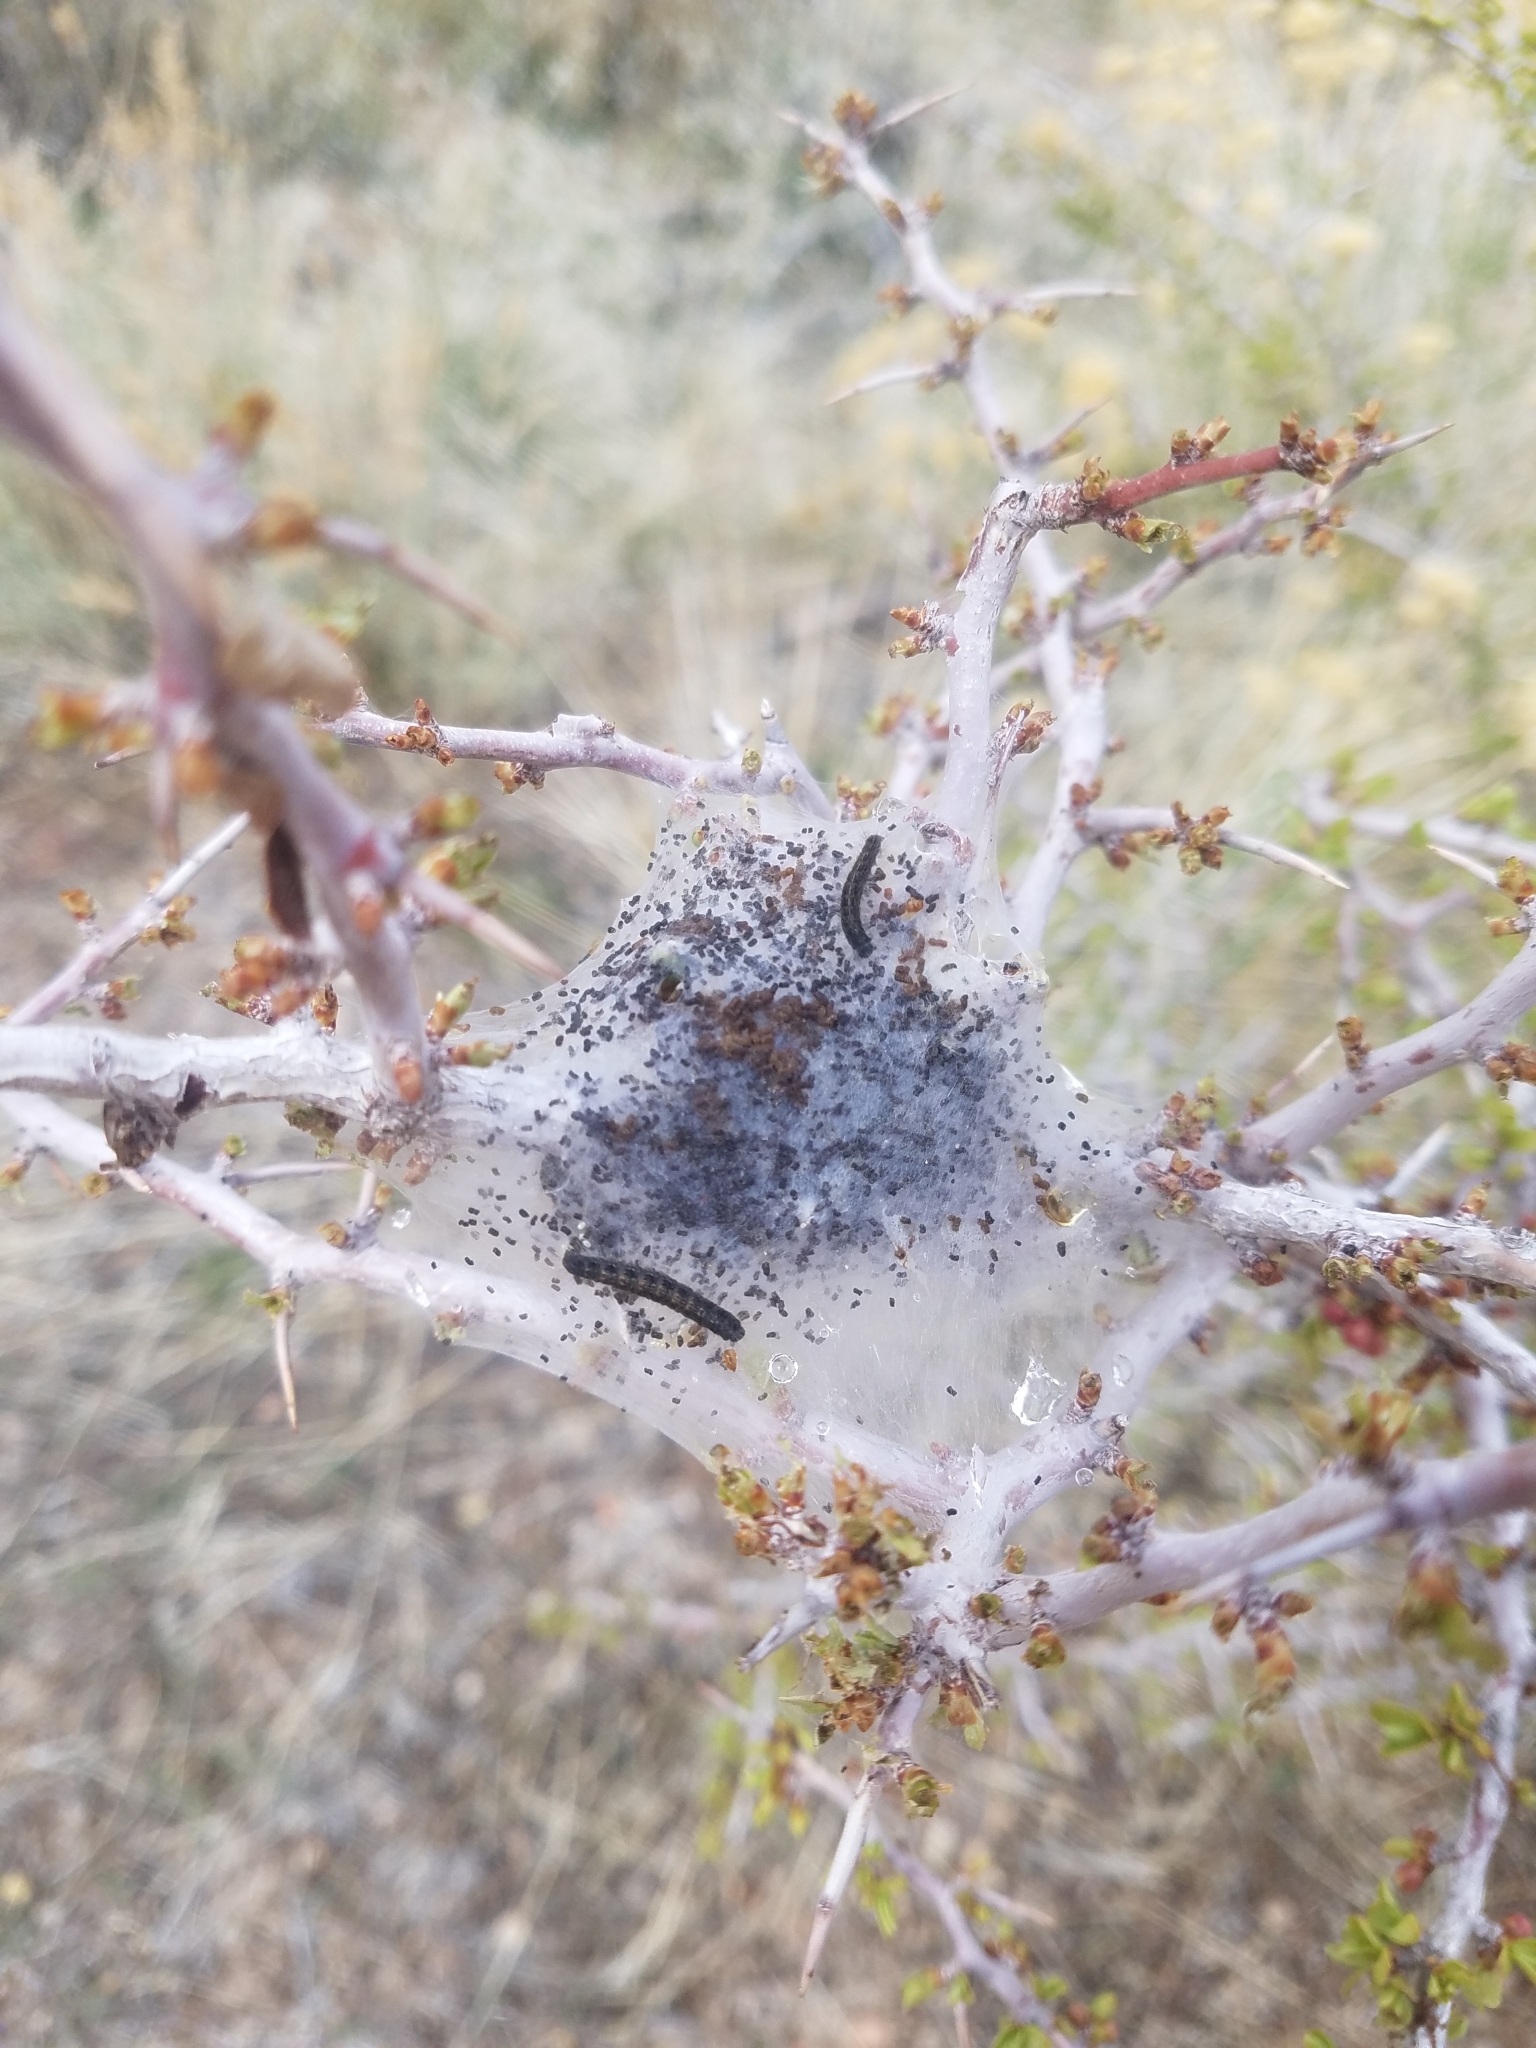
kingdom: Animalia
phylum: Arthropoda
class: Insecta
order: Lepidoptera
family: Lasiocampidae
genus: Malacosoma
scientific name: Malacosoma californica
